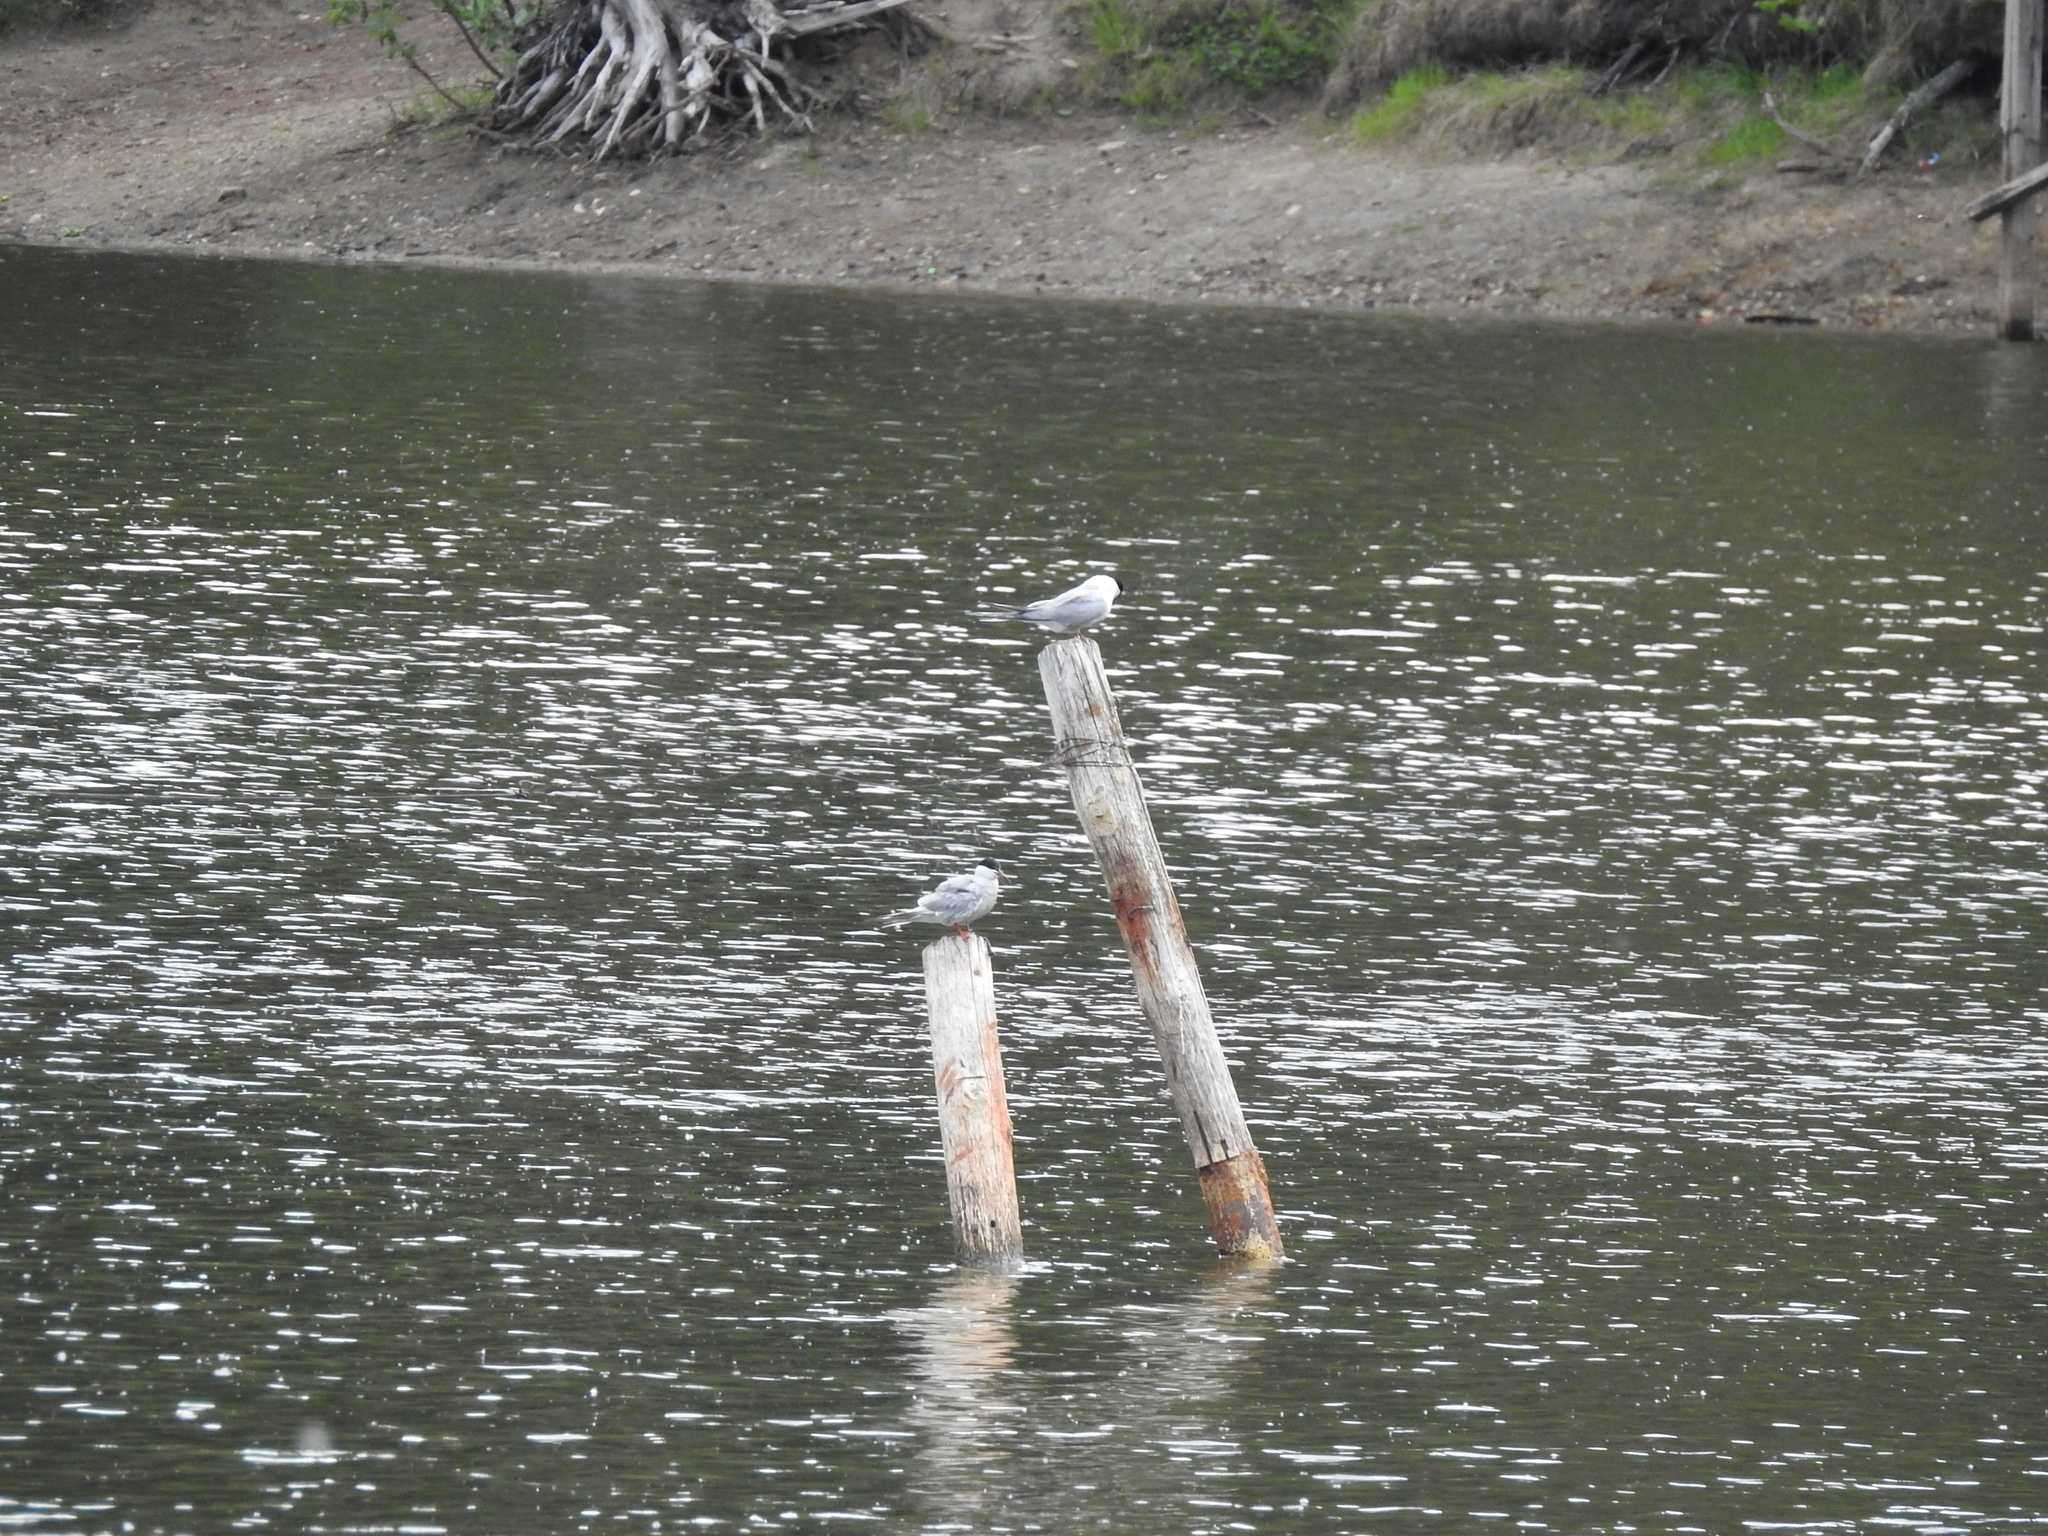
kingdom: Animalia
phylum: Chordata
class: Aves
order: Charadriiformes
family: Laridae
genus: Sterna
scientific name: Sterna hirundo
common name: Common tern
